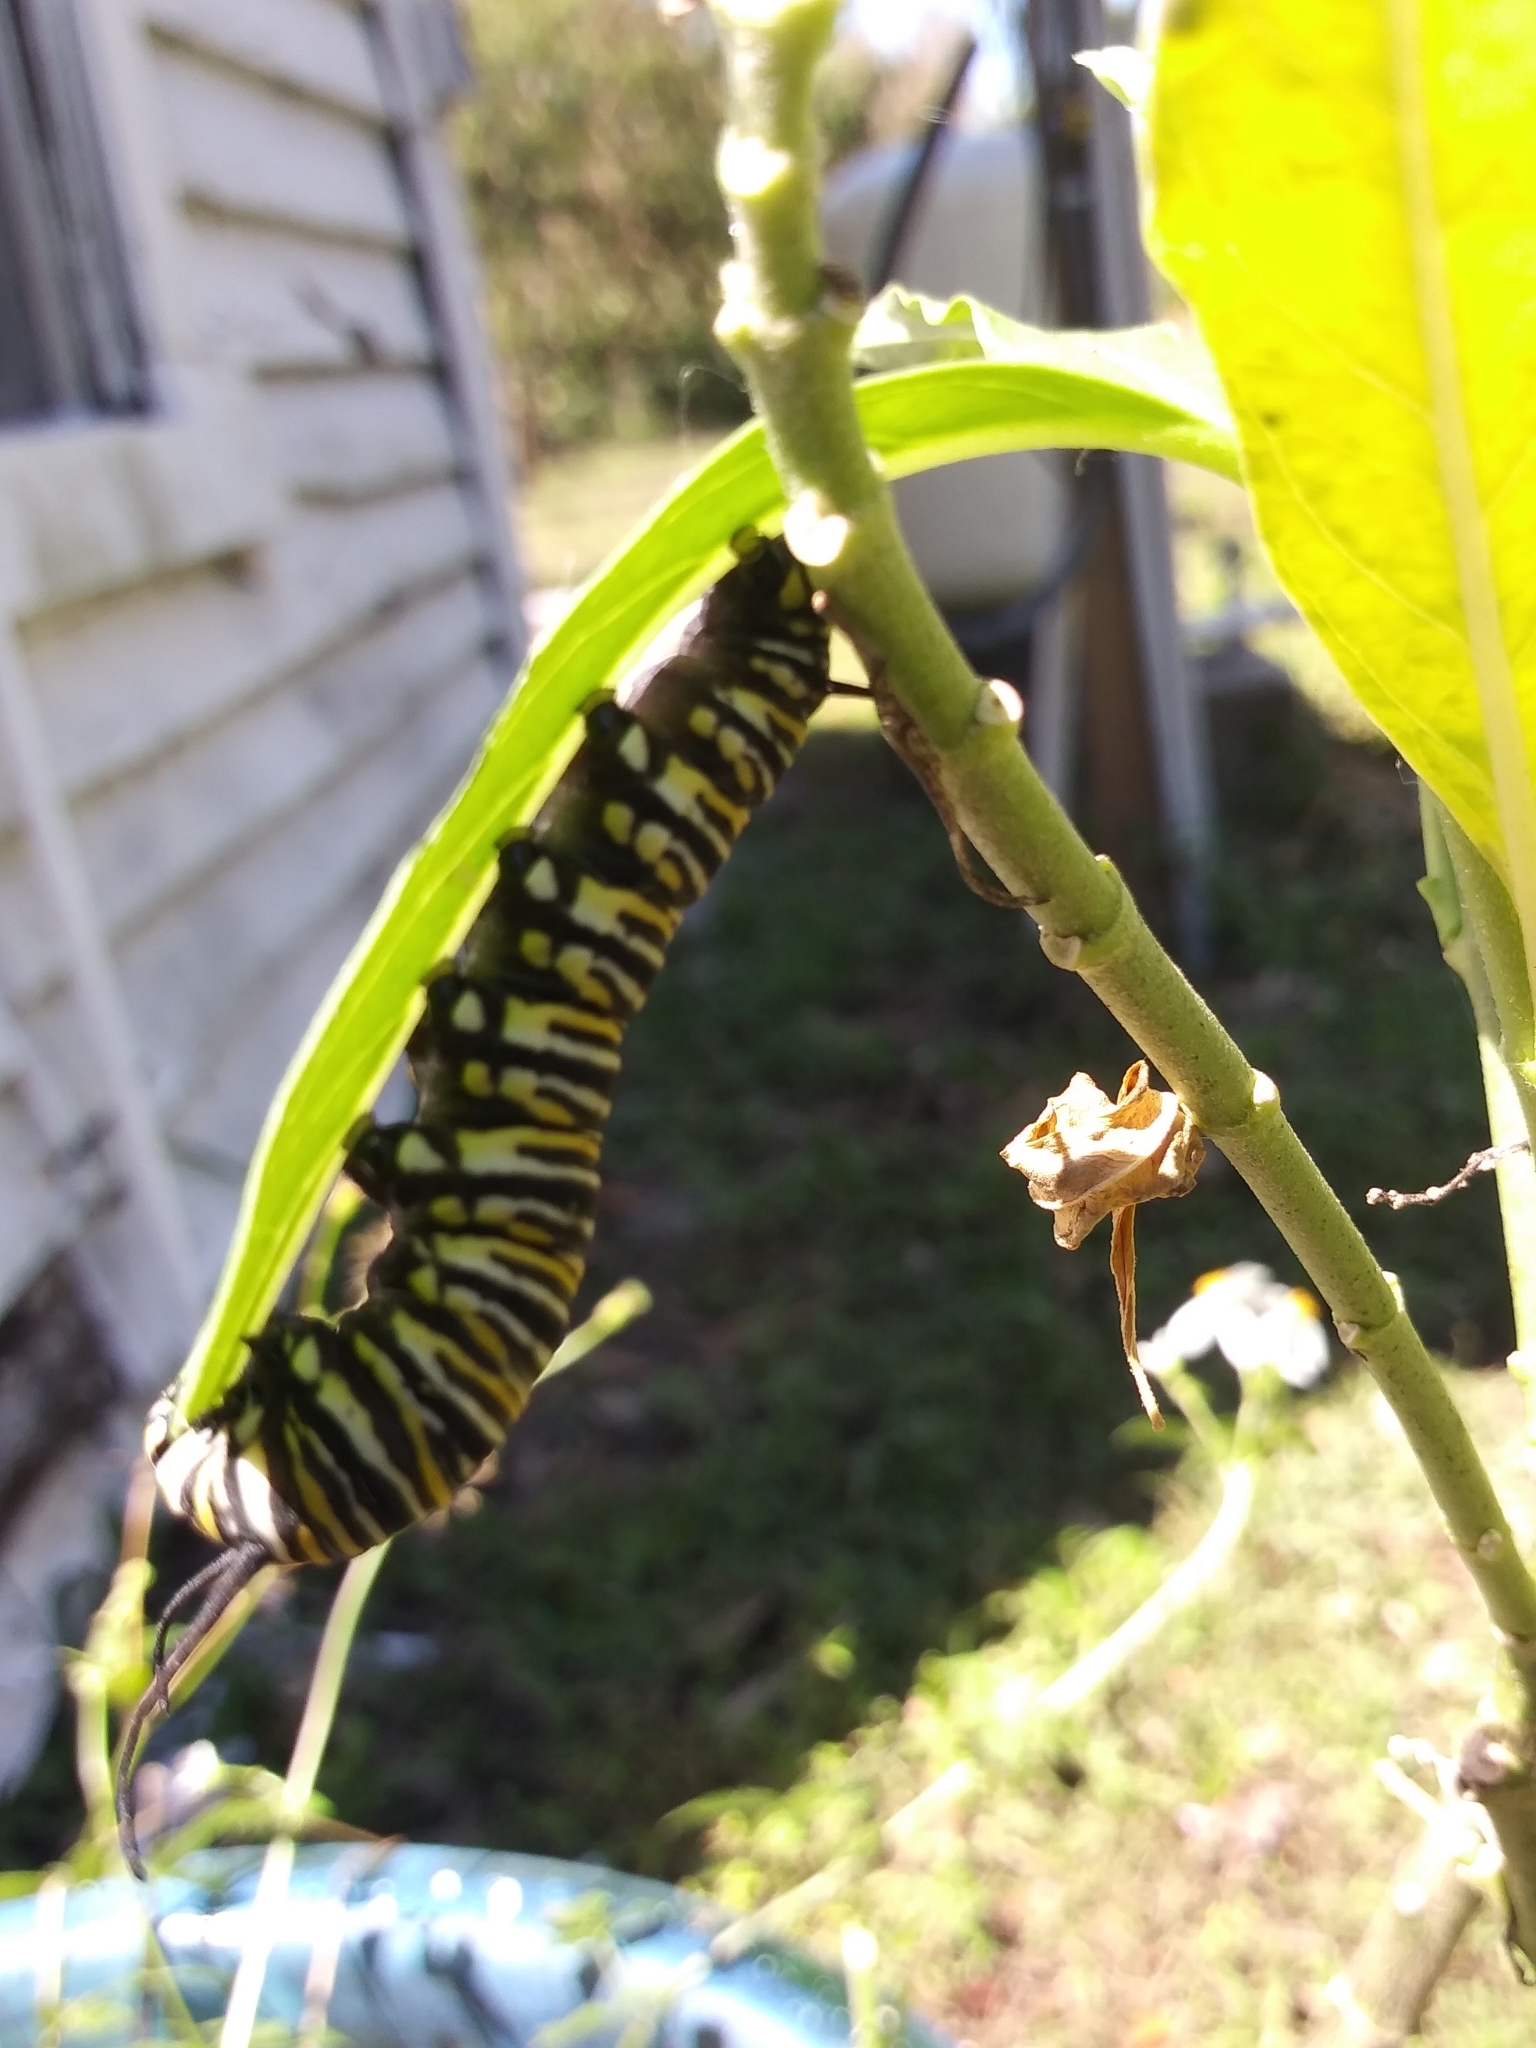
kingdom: Animalia
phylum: Arthropoda
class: Insecta
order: Lepidoptera
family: Nymphalidae
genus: Danaus
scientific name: Danaus plexippus
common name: Monarch
